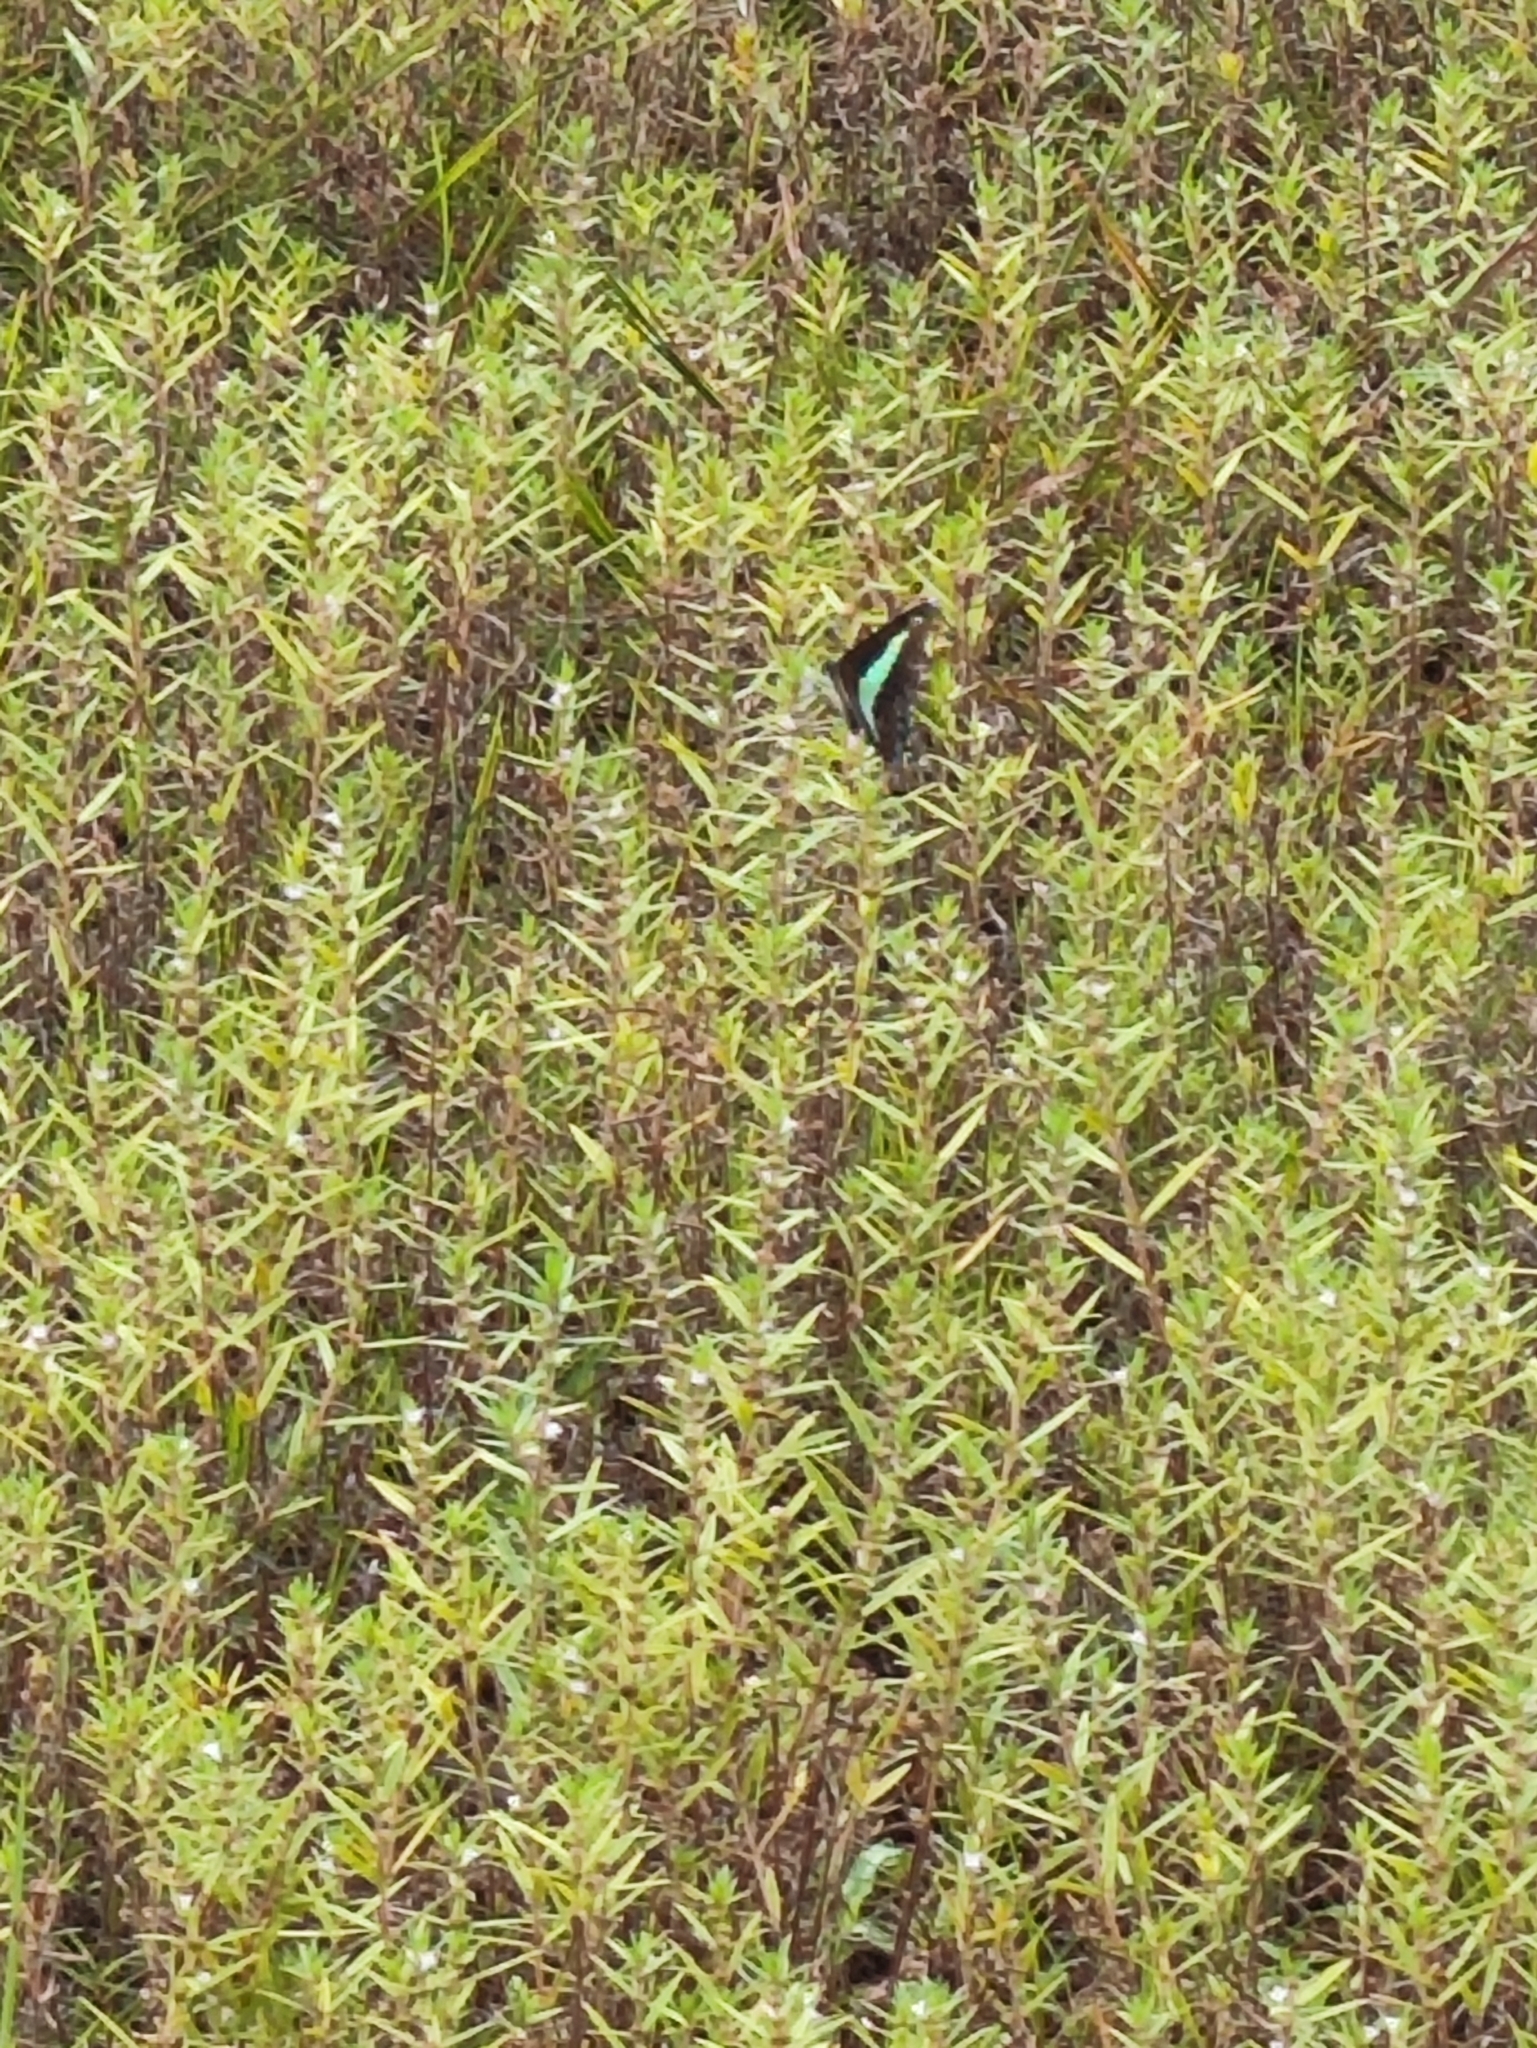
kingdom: Animalia
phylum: Arthropoda
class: Insecta
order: Lepidoptera
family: Papilionidae
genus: Graphium
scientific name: Graphium
